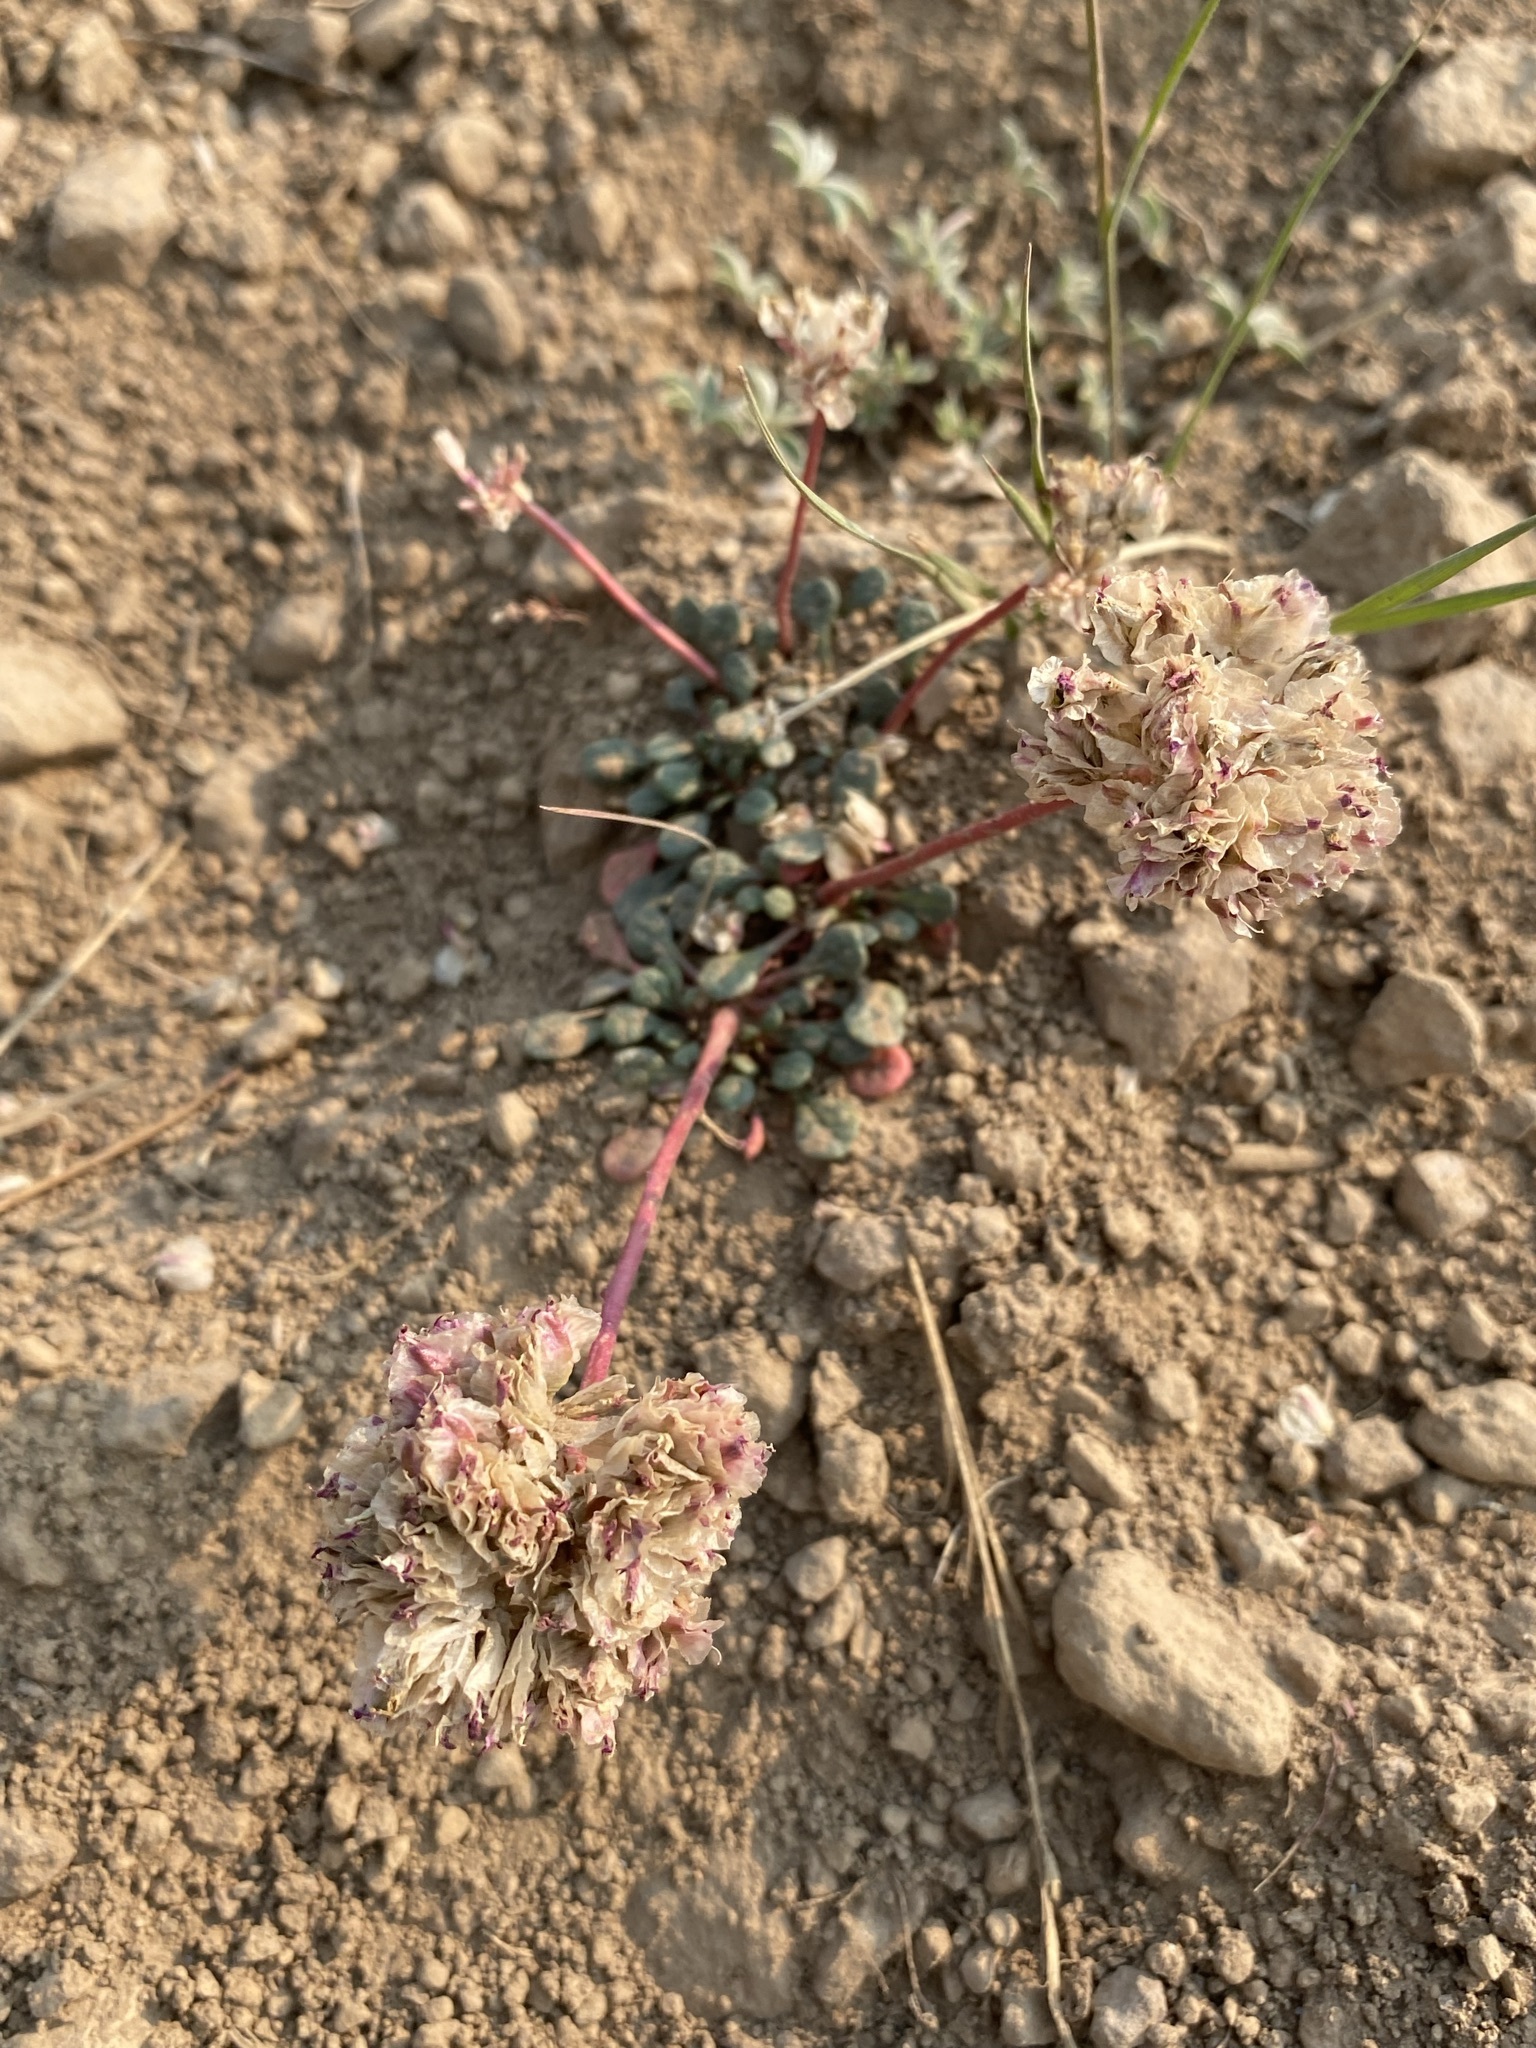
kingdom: Plantae
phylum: Tracheophyta
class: Magnoliopsida
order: Caryophyllales
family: Montiaceae
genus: Calyptridium
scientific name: Calyptridium umbellatum
